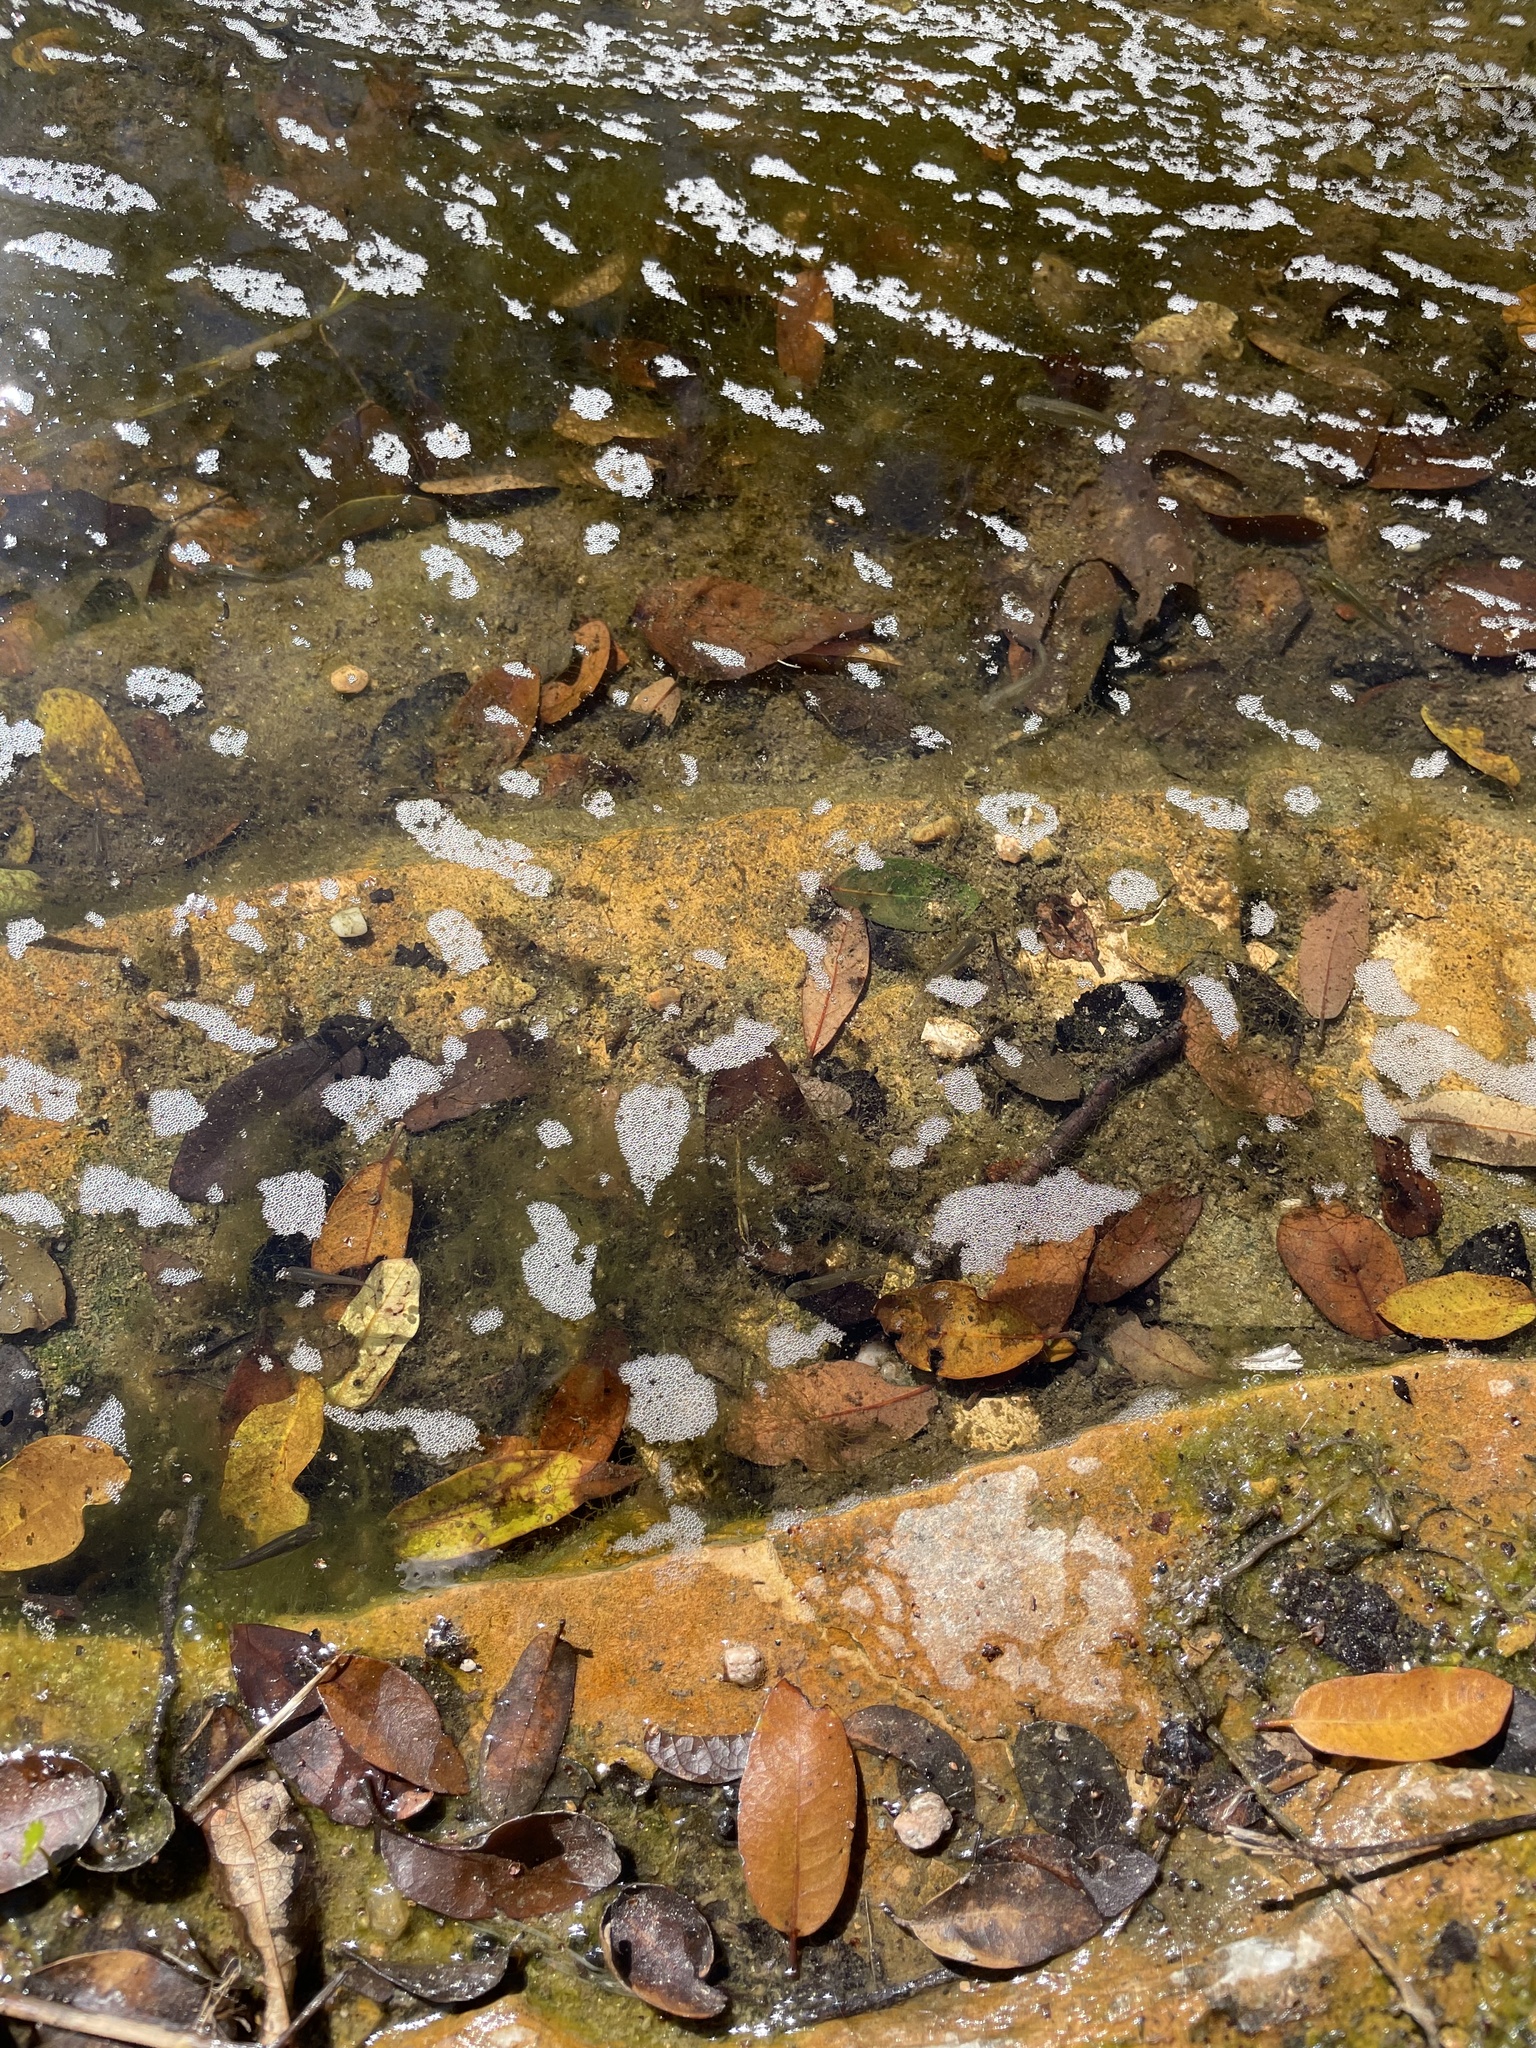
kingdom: Animalia
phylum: Chordata
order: Cyprinodontiformes
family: Poeciliidae
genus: Gambusia
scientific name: Gambusia affinis
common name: Mosquitofish
